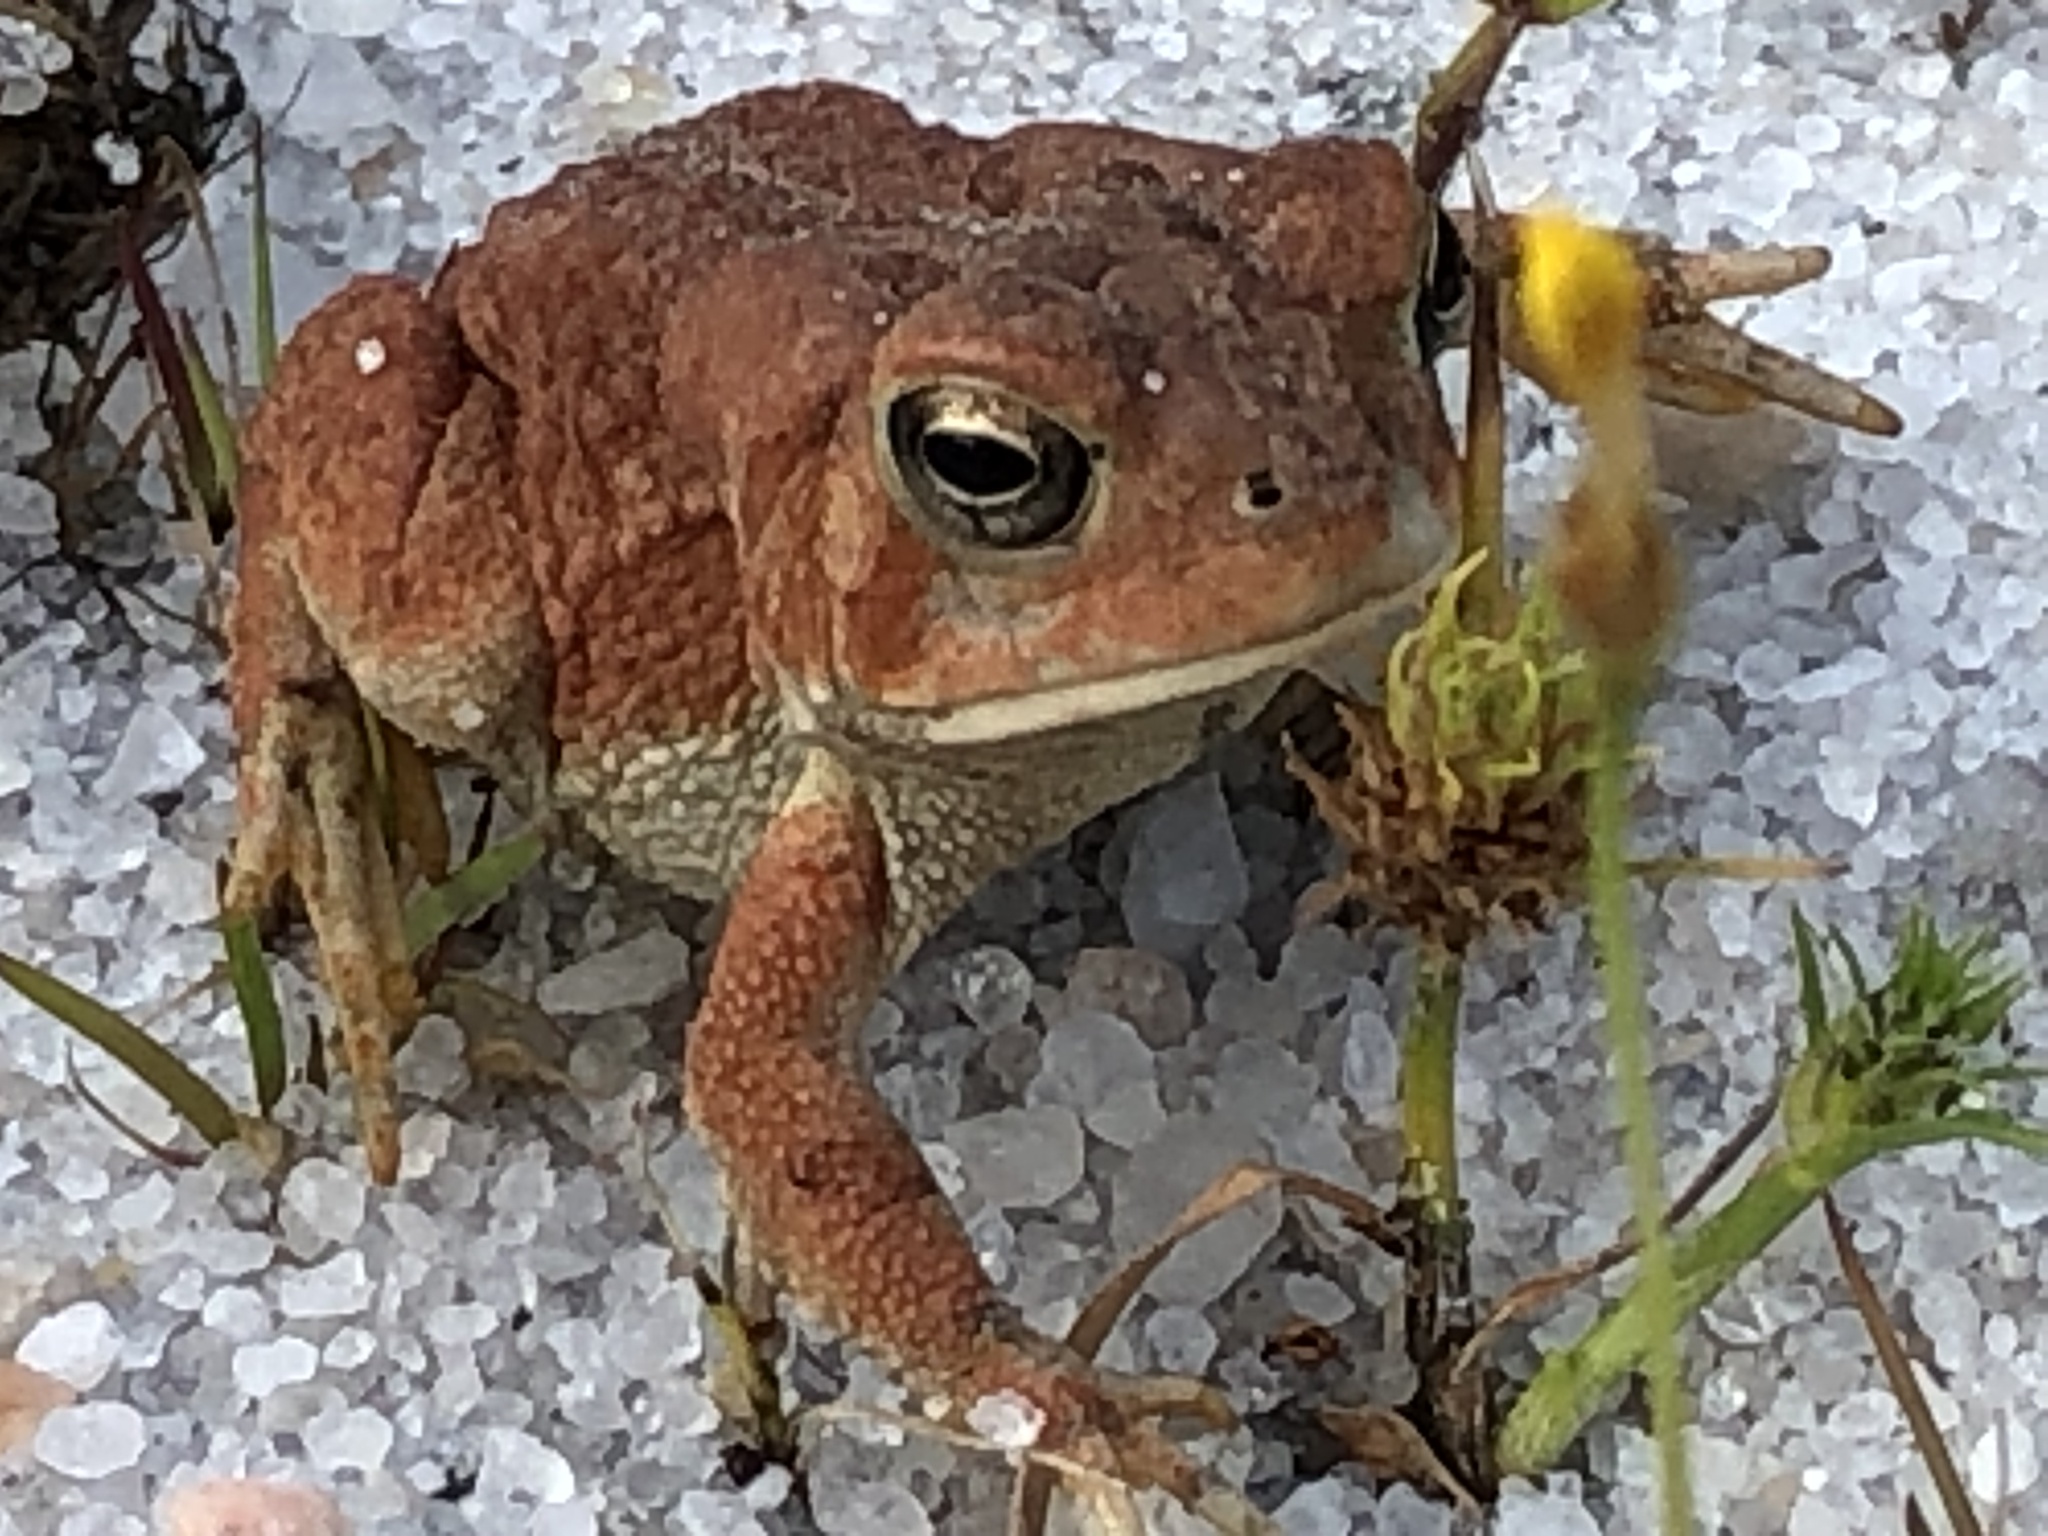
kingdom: Plantae
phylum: Tracheophyta
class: Liliopsida
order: Poales
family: Cyperaceae
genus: Fuirena
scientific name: Fuirena pumila
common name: Dwarf umbrella sedge
